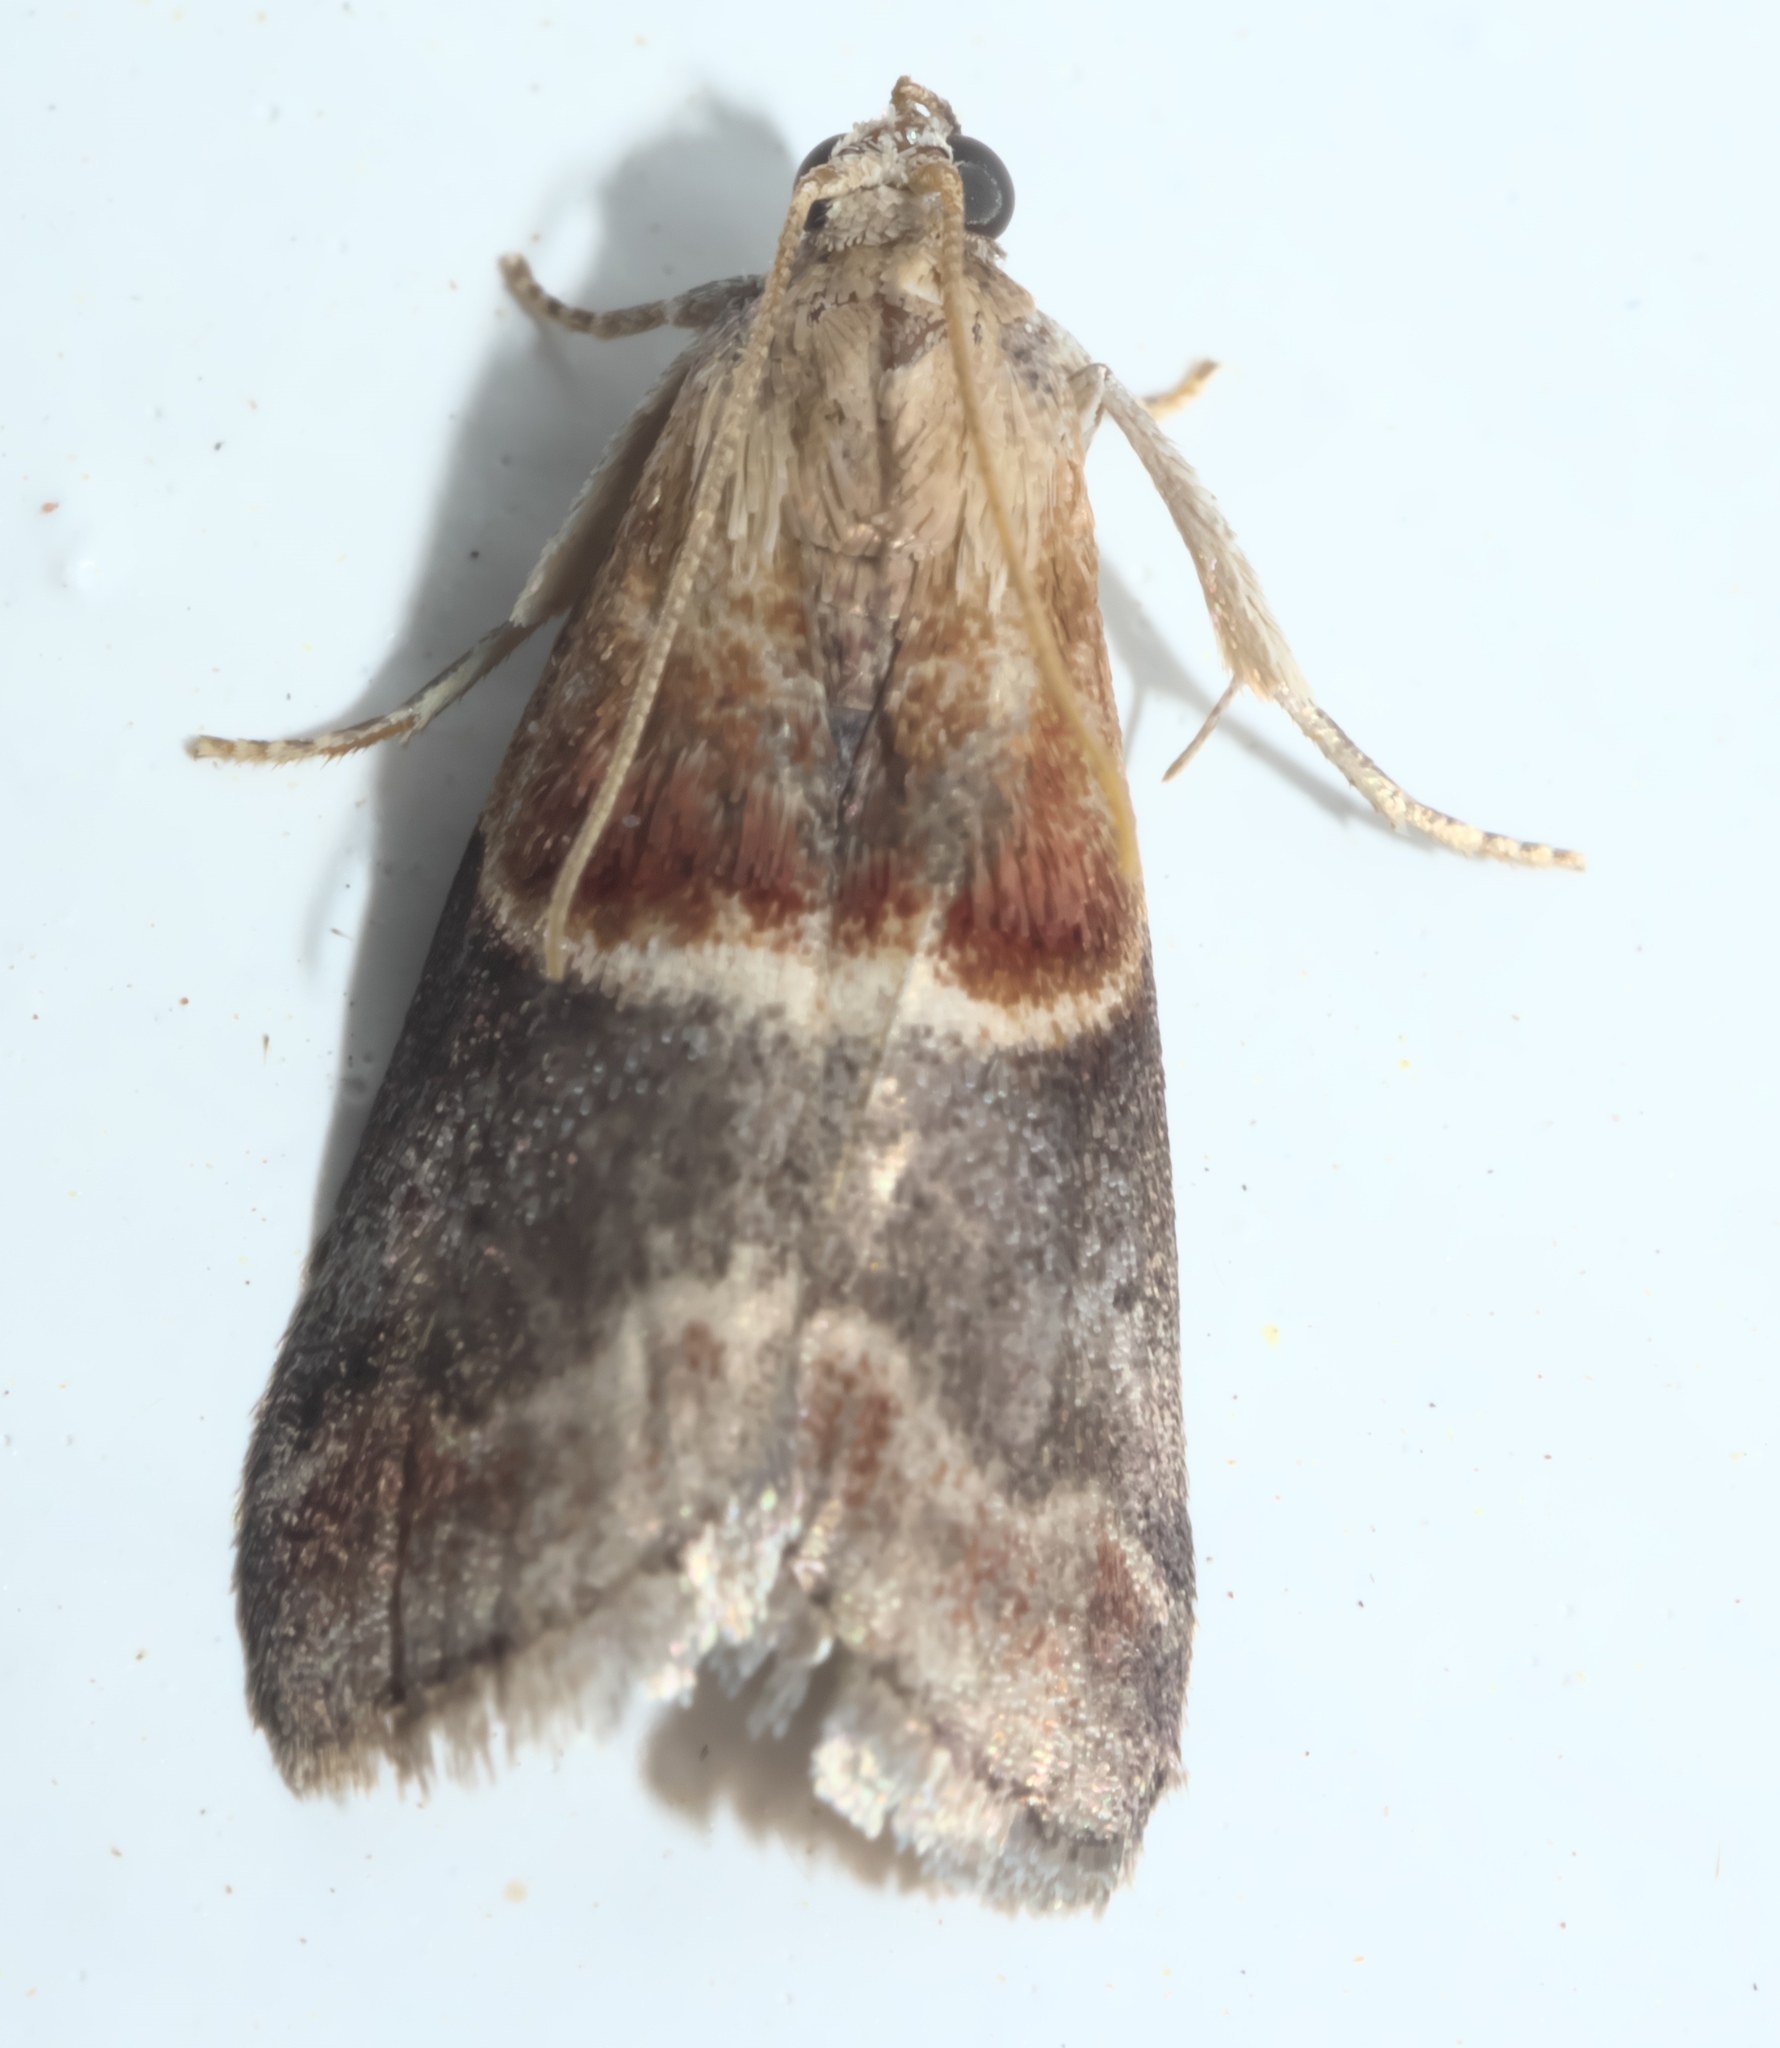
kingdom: Animalia
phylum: Arthropoda
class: Insecta
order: Lepidoptera
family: Pyralidae
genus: Moodna
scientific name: Moodna ostrinella
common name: Darker moodna moth
